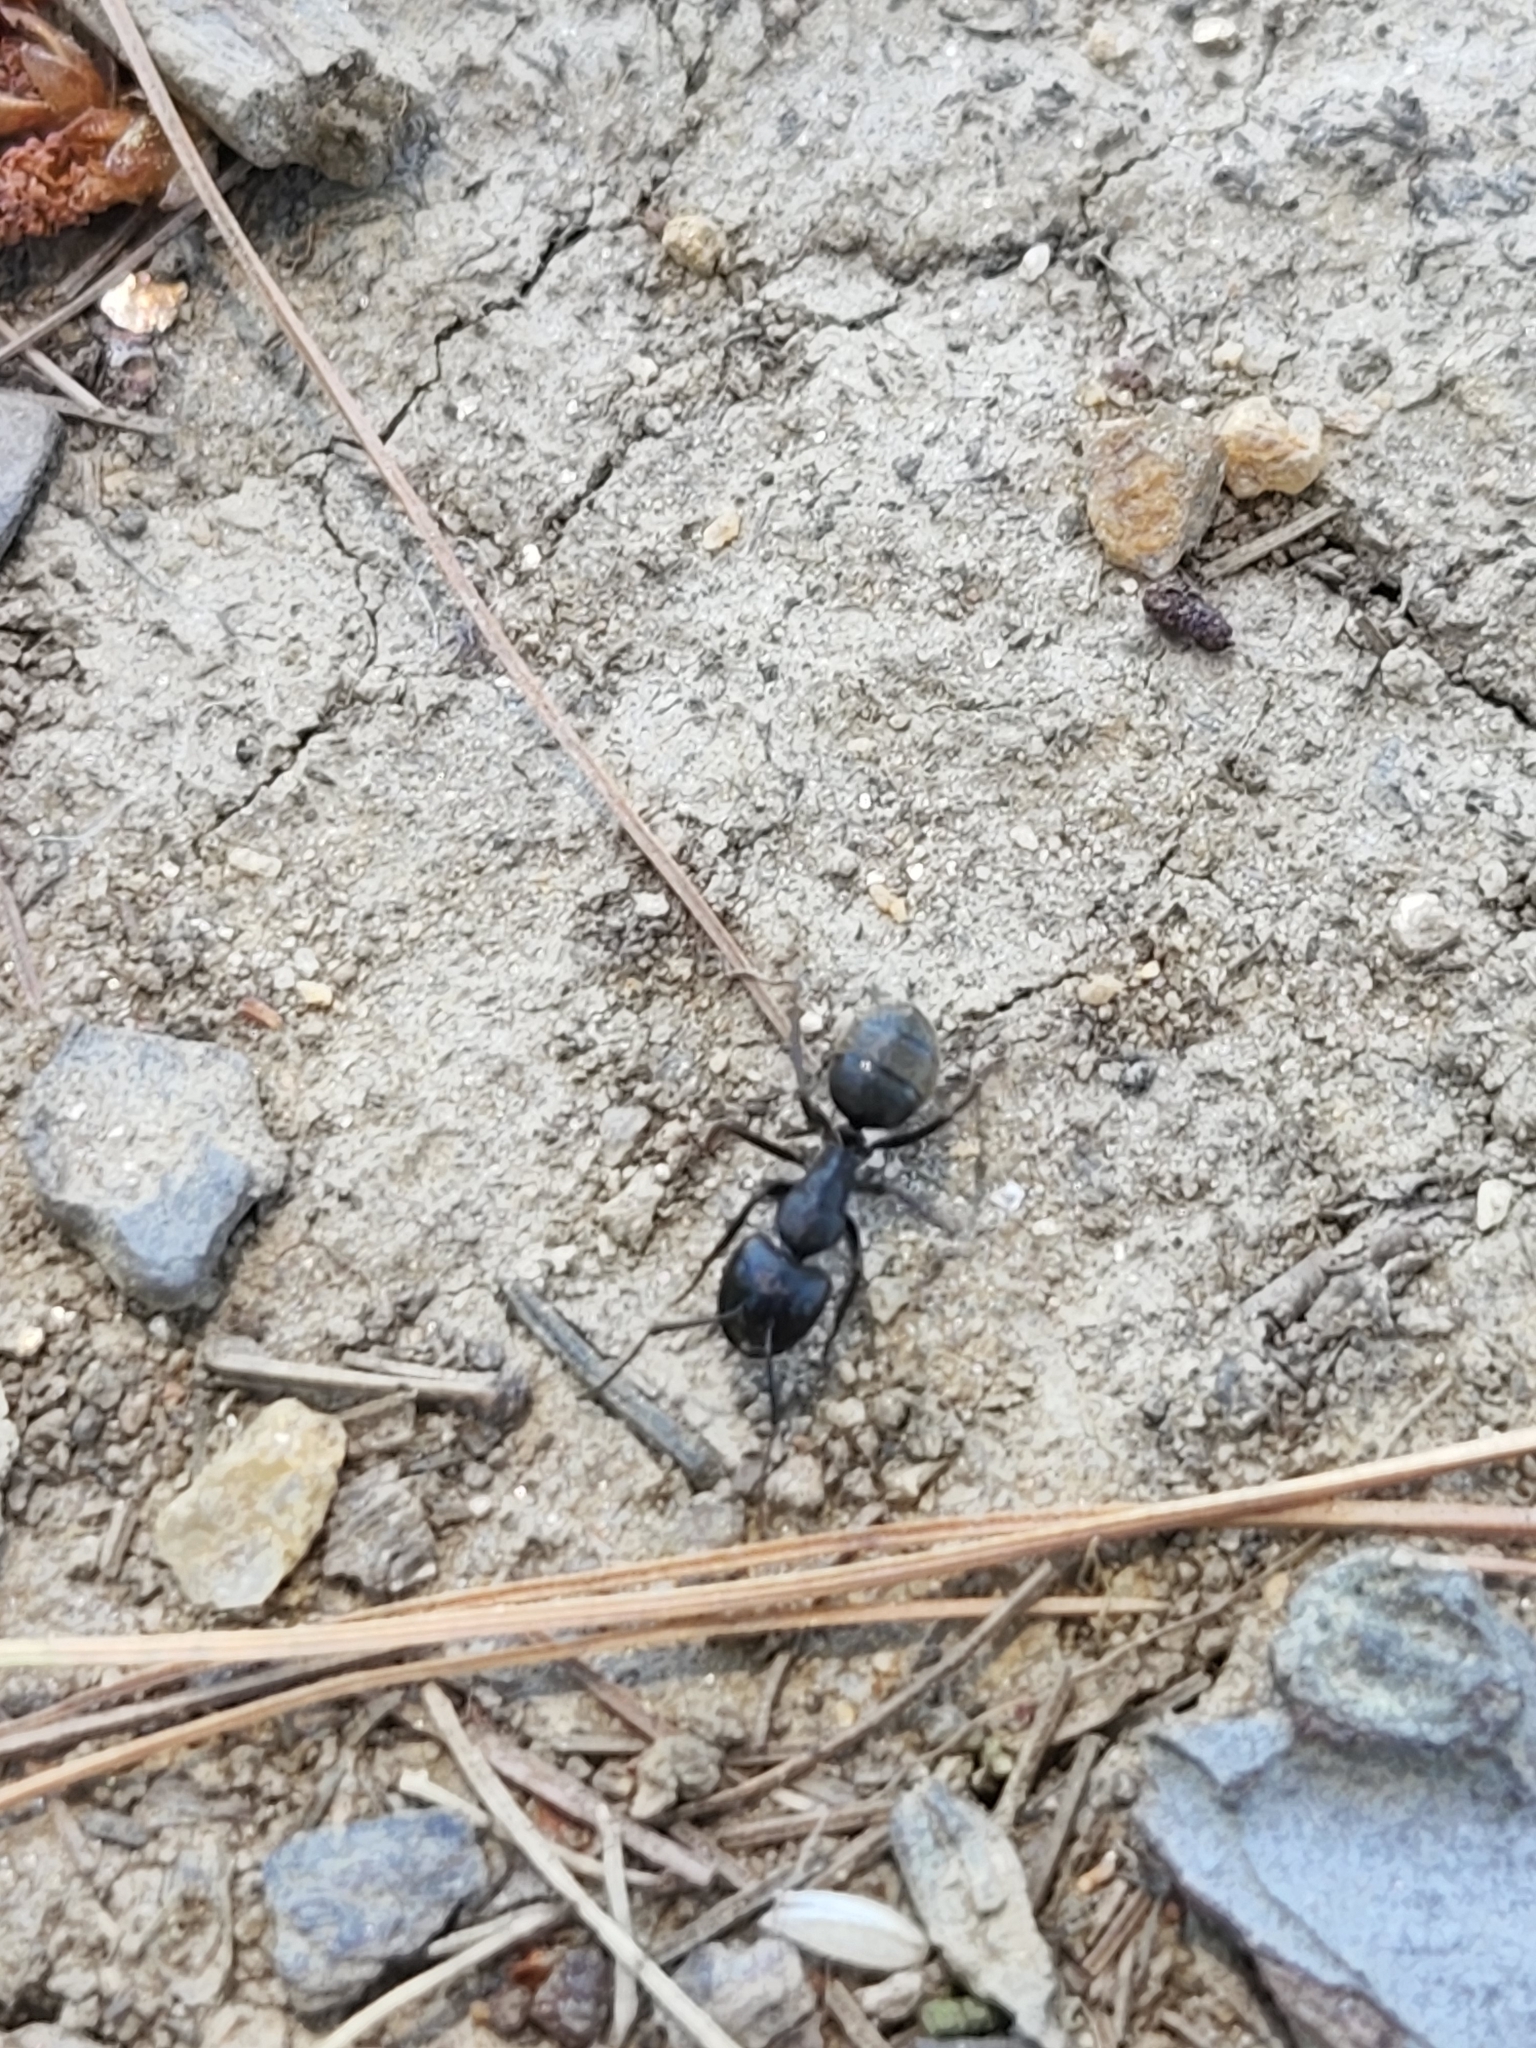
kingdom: Animalia
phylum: Arthropoda
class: Insecta
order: Hymenoptera
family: Formicidae
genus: Camponotus
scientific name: Camponotus pennsylvanicus
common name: Black carpenter ant
